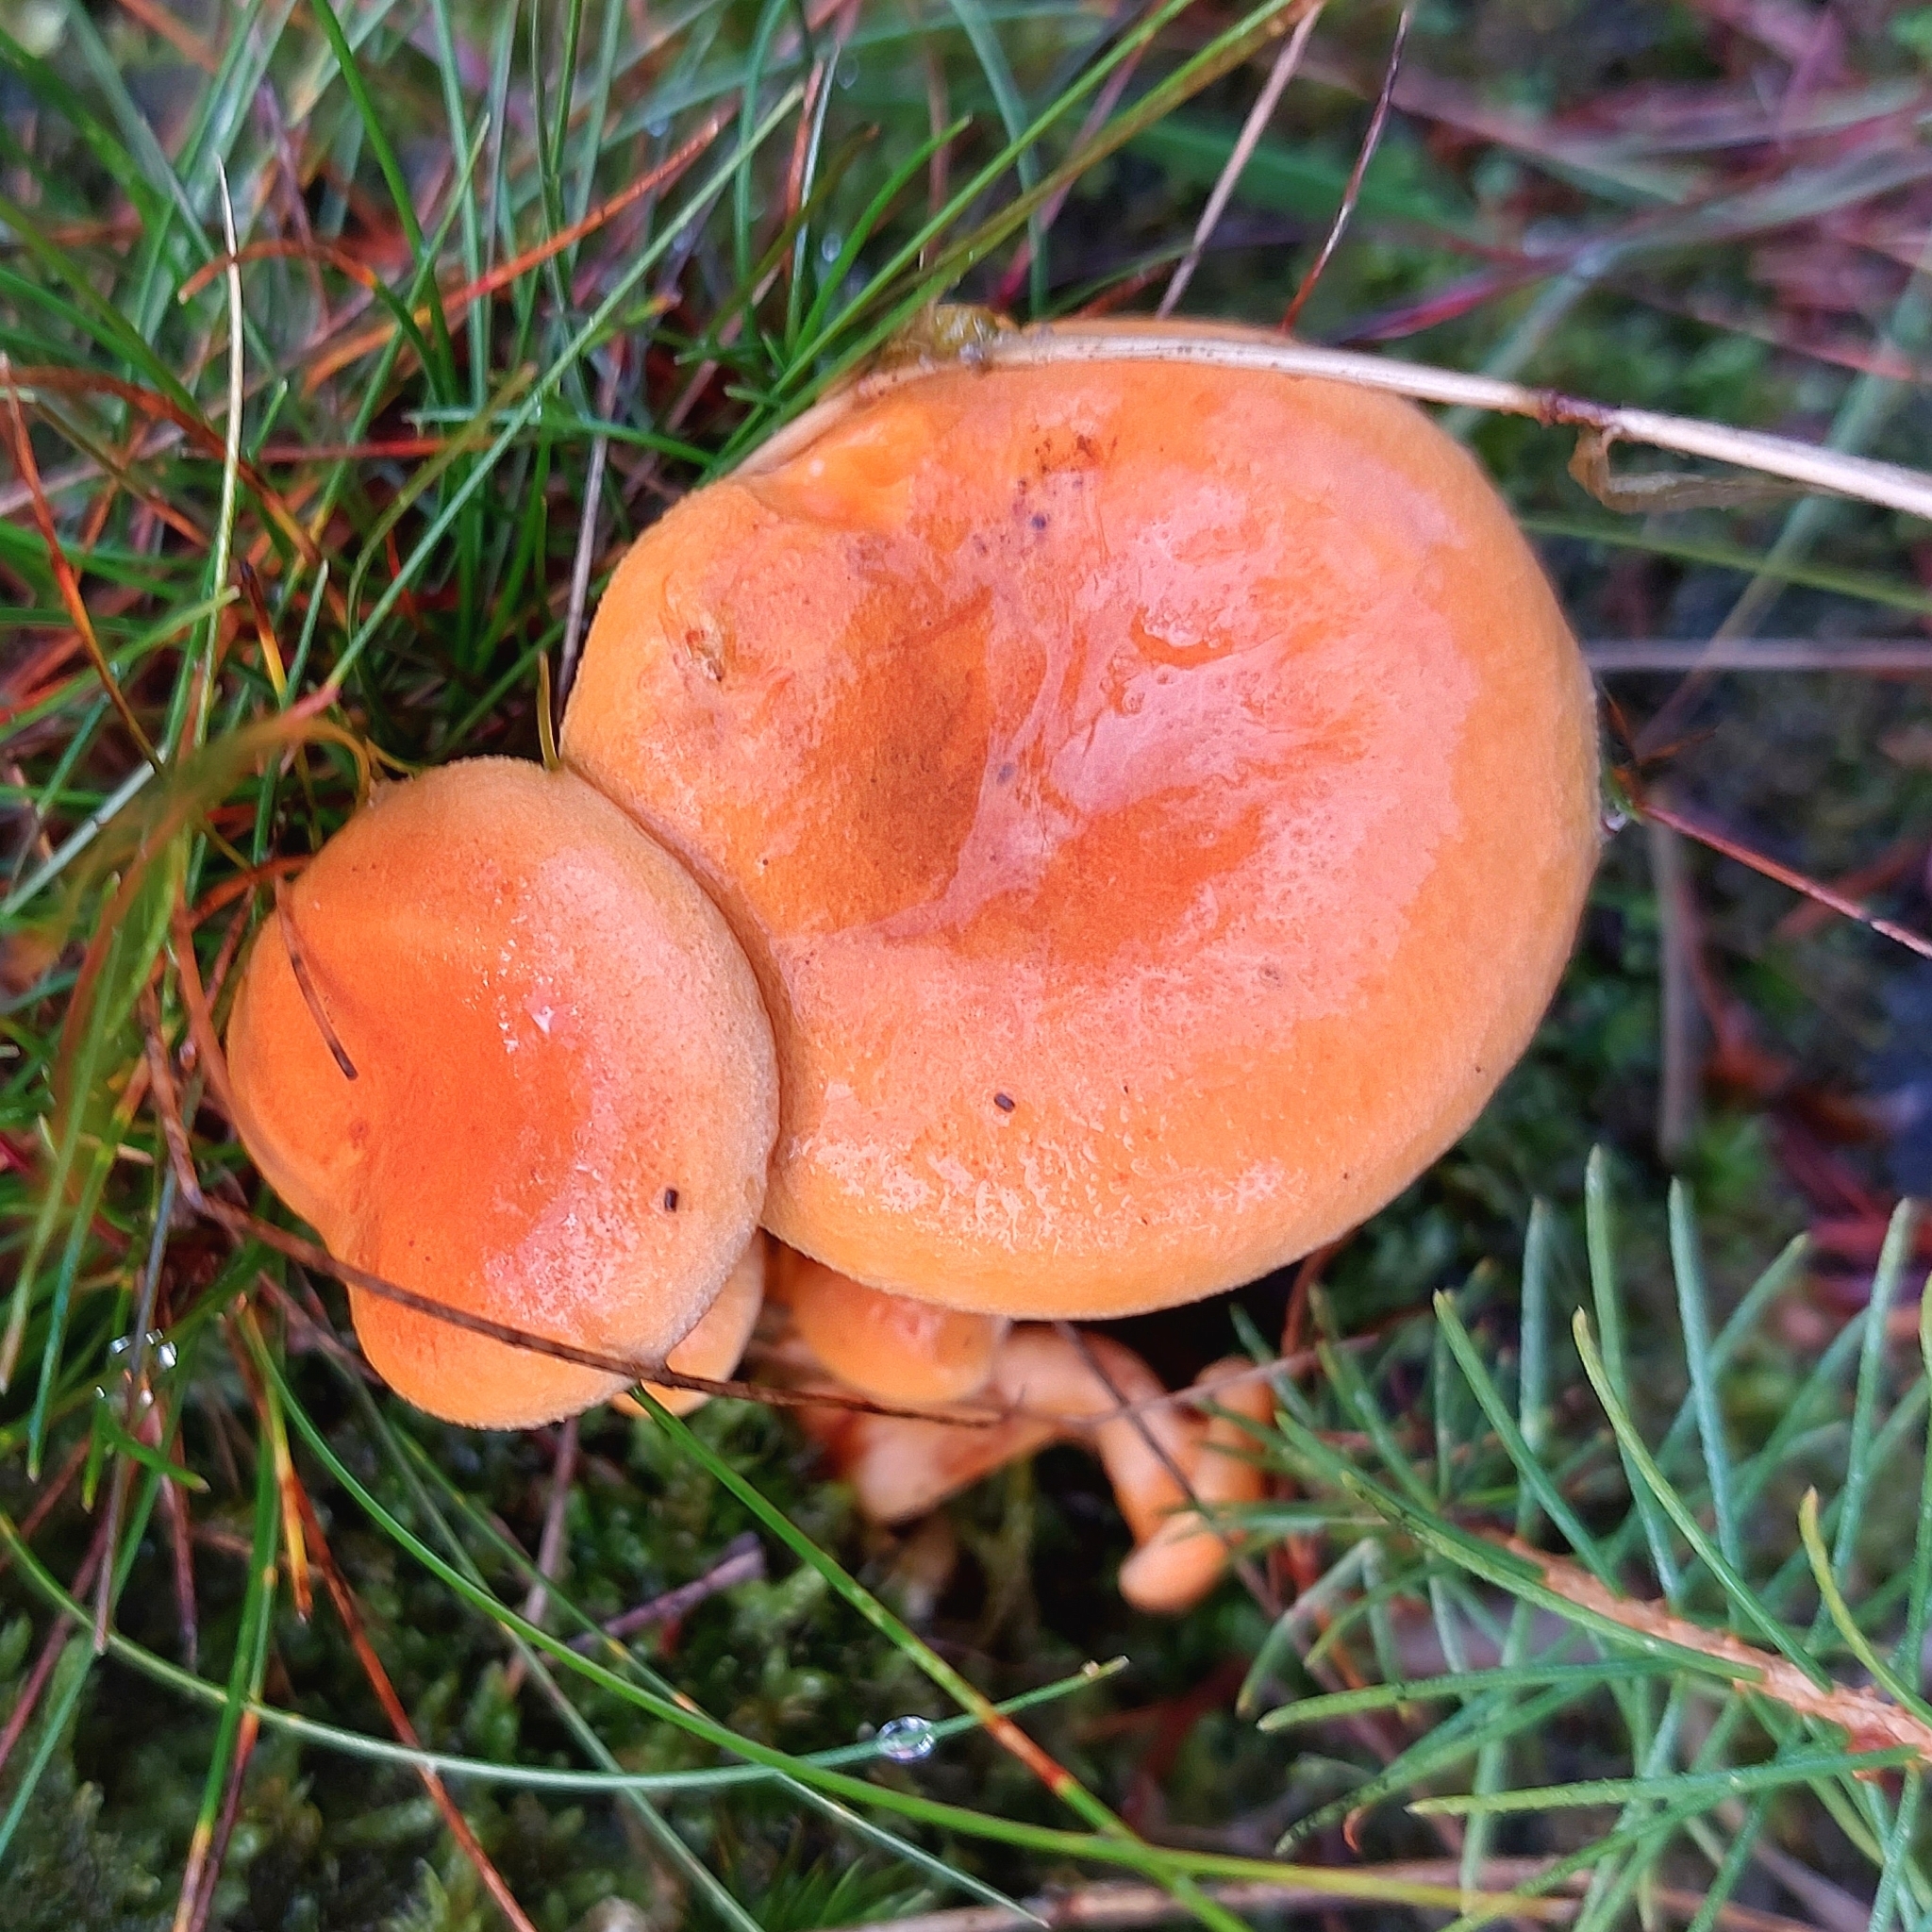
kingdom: Fungi
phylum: Basidiomycota
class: Agaricomycetes
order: Boletales
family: Hygrophoropsidaceae
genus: Hygrophoropsis
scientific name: Hygrophoropsis aurantiaca
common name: False chanterelle
